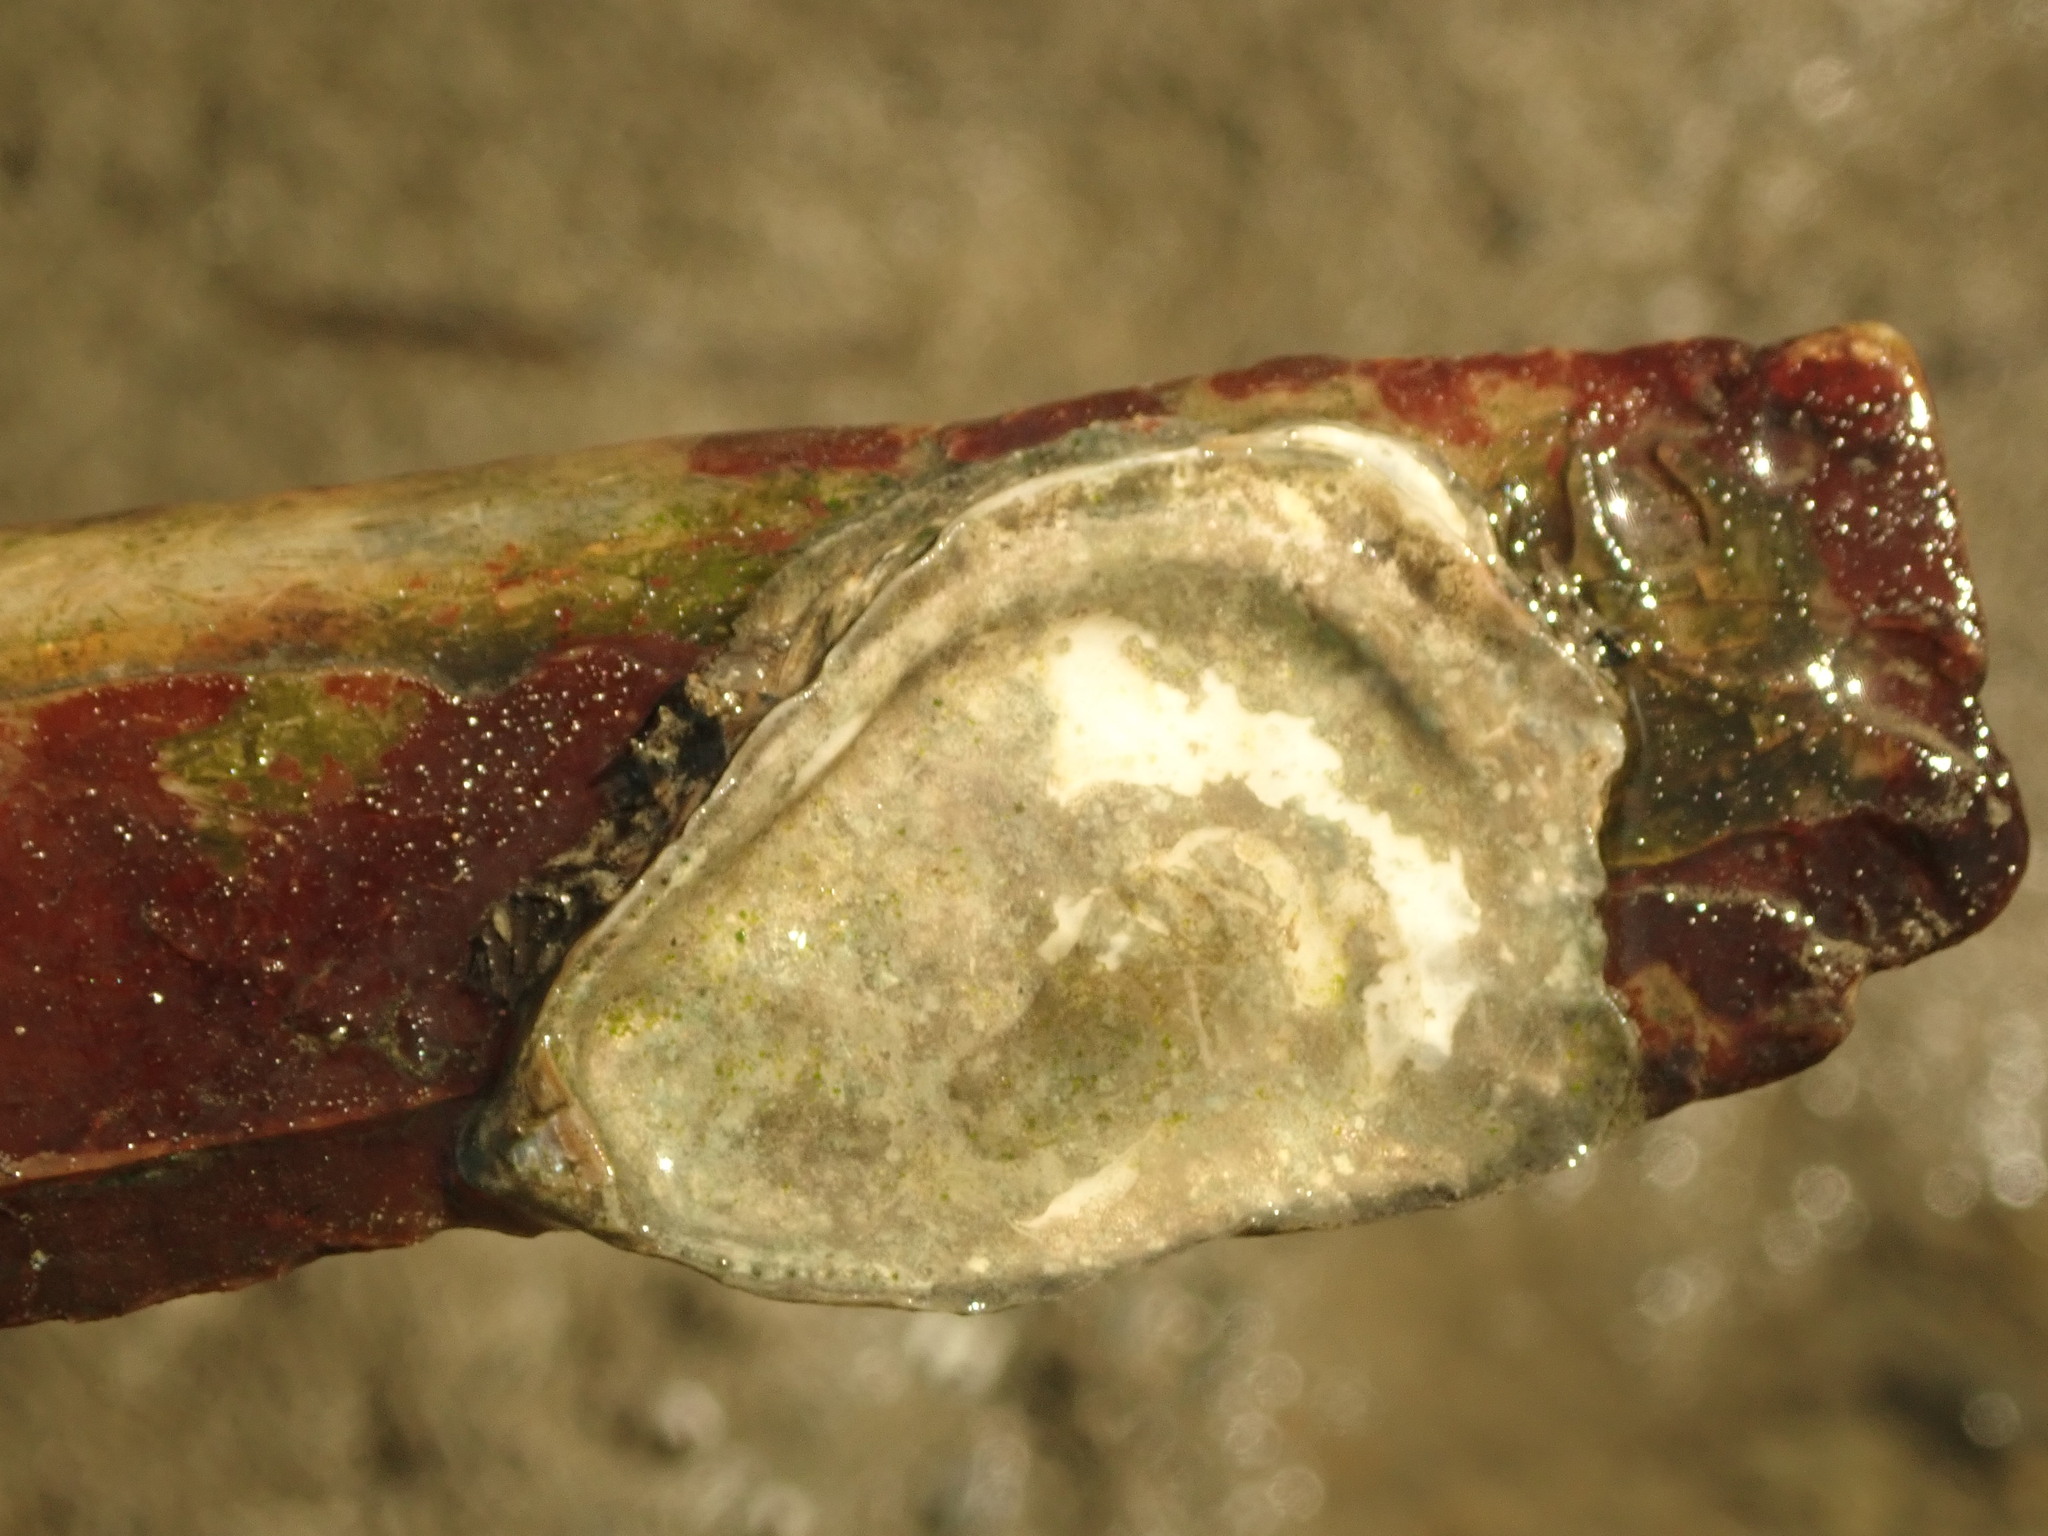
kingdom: Animalia
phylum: Mollusca
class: Bivalvia
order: Ostreida
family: Ostreidae
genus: Ostrea
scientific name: Ostrea lurida
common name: Olympia flat oyster
